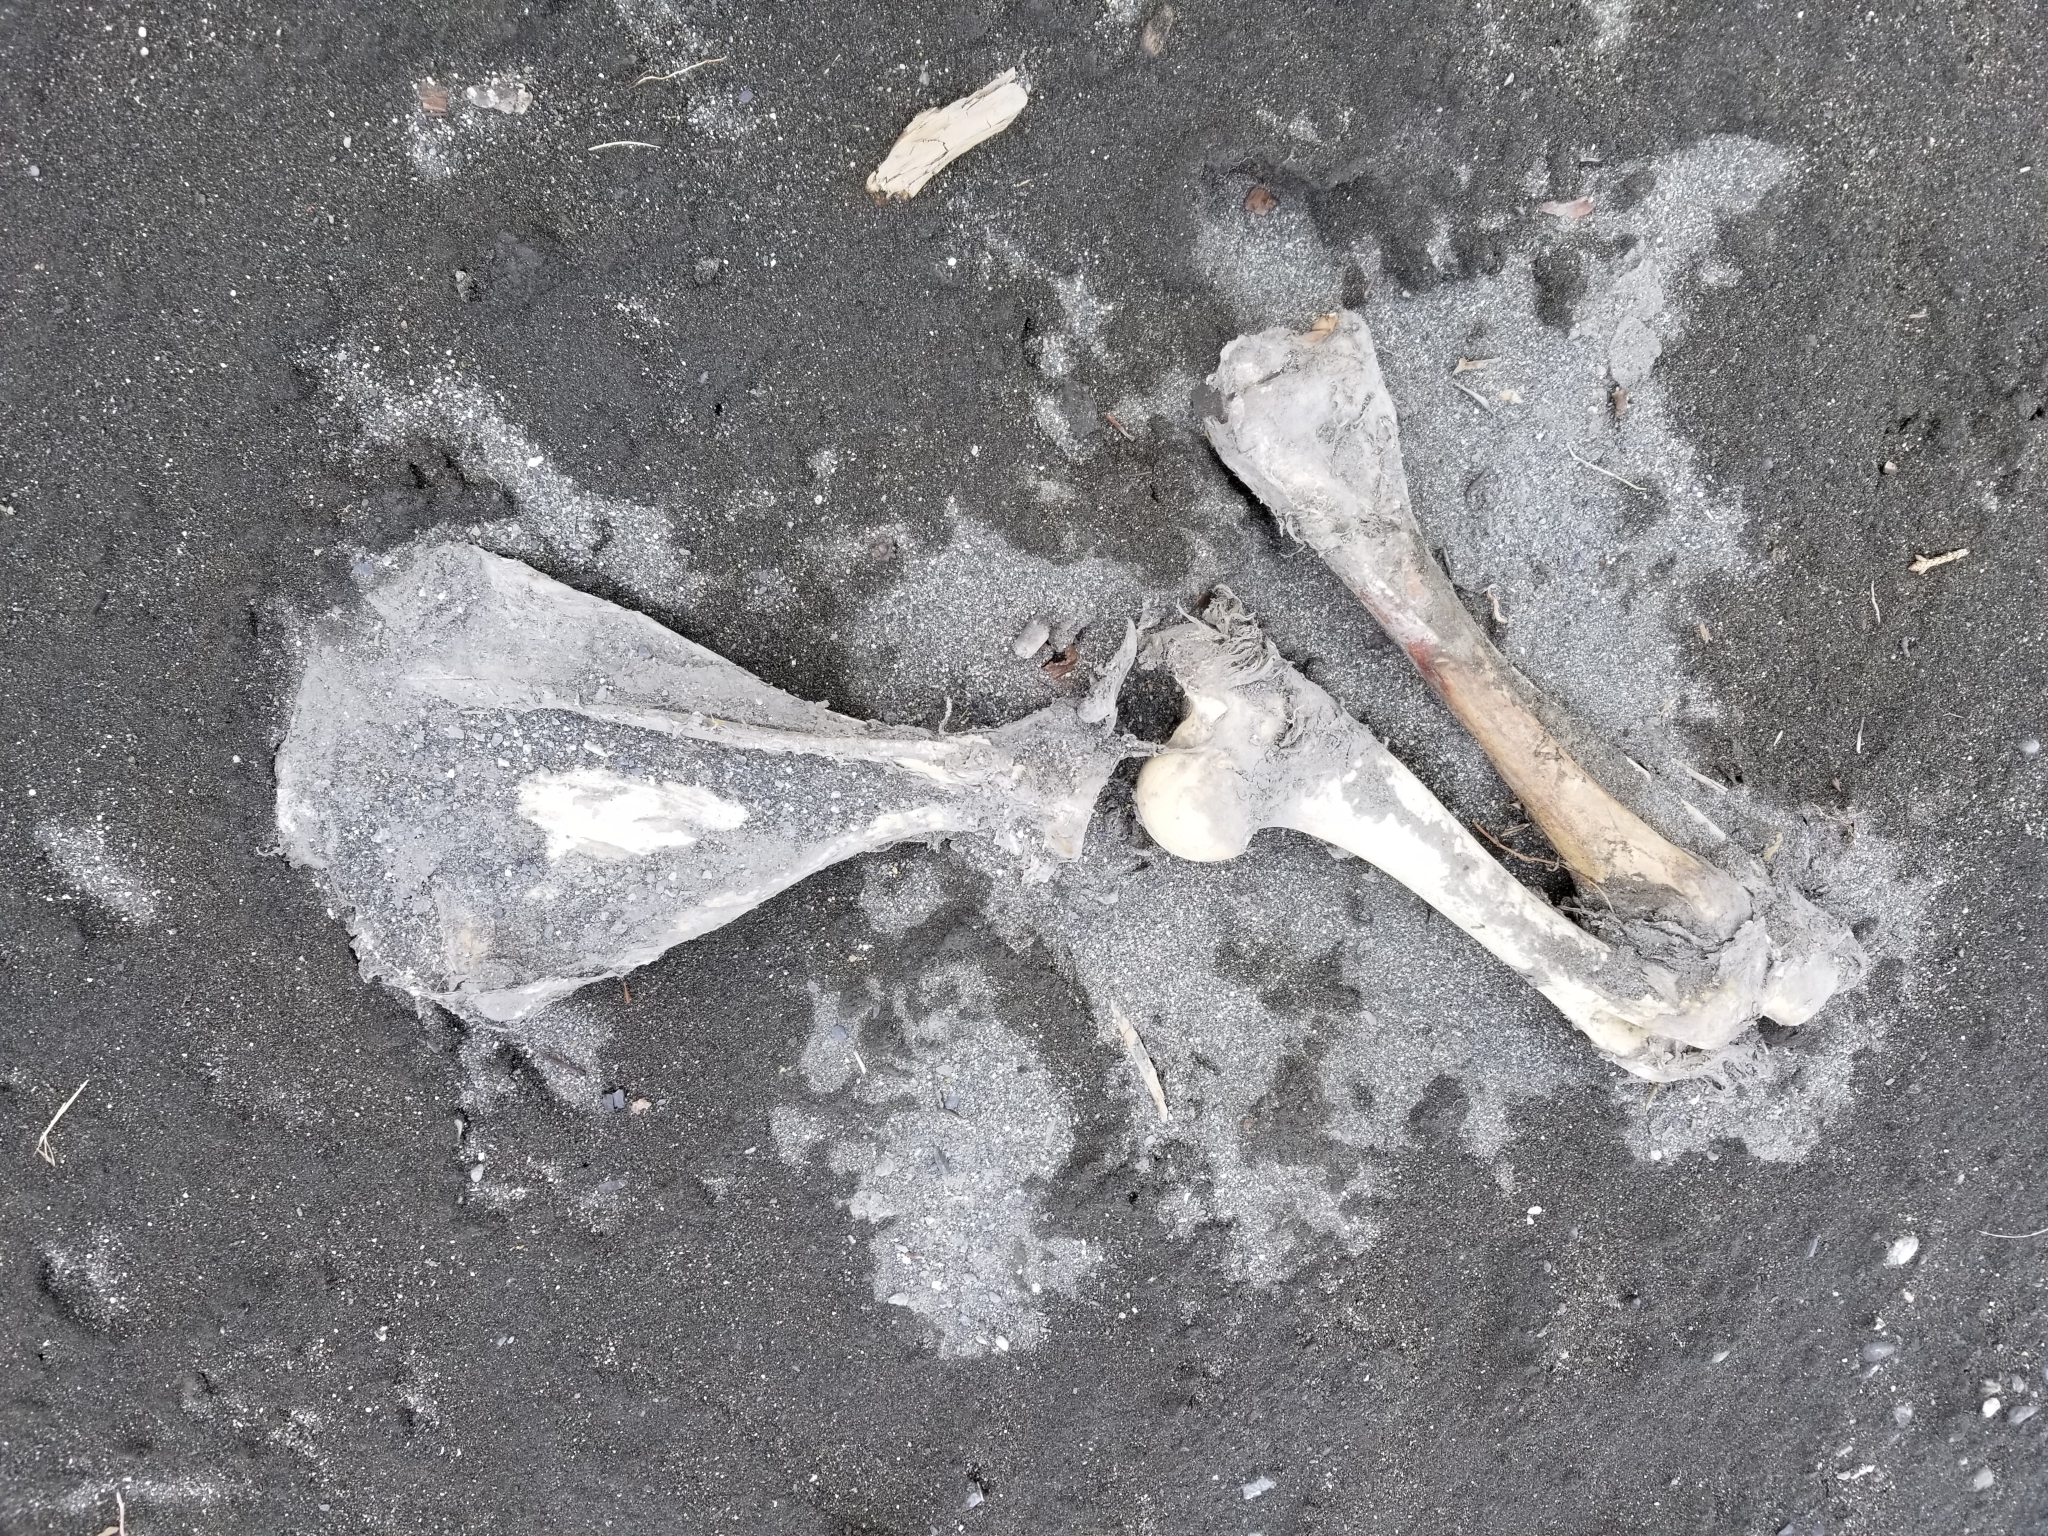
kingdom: Animalia
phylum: Chordata
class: Mammalia
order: Artiodactyla
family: Cervidae
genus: Alces
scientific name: Alces alces
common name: Moose
